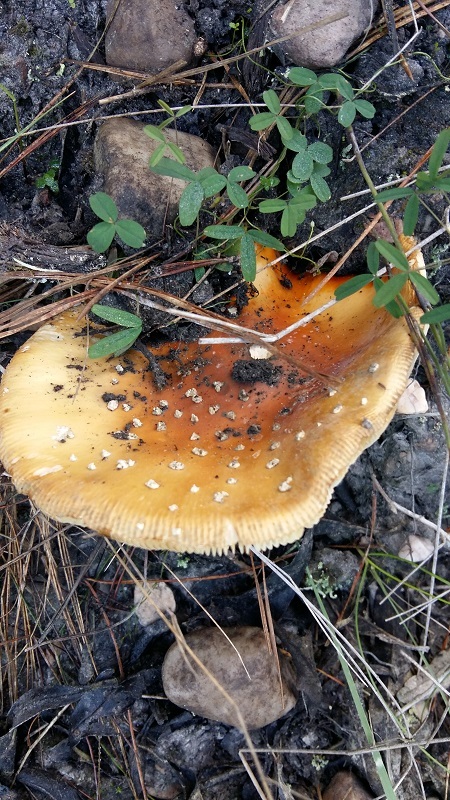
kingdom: Fungi
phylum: Basidiomycota
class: Agaricomycetes
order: Agaricales
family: Amanitaceae
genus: Amanita
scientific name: Amanita muscaria
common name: Fly agaric
